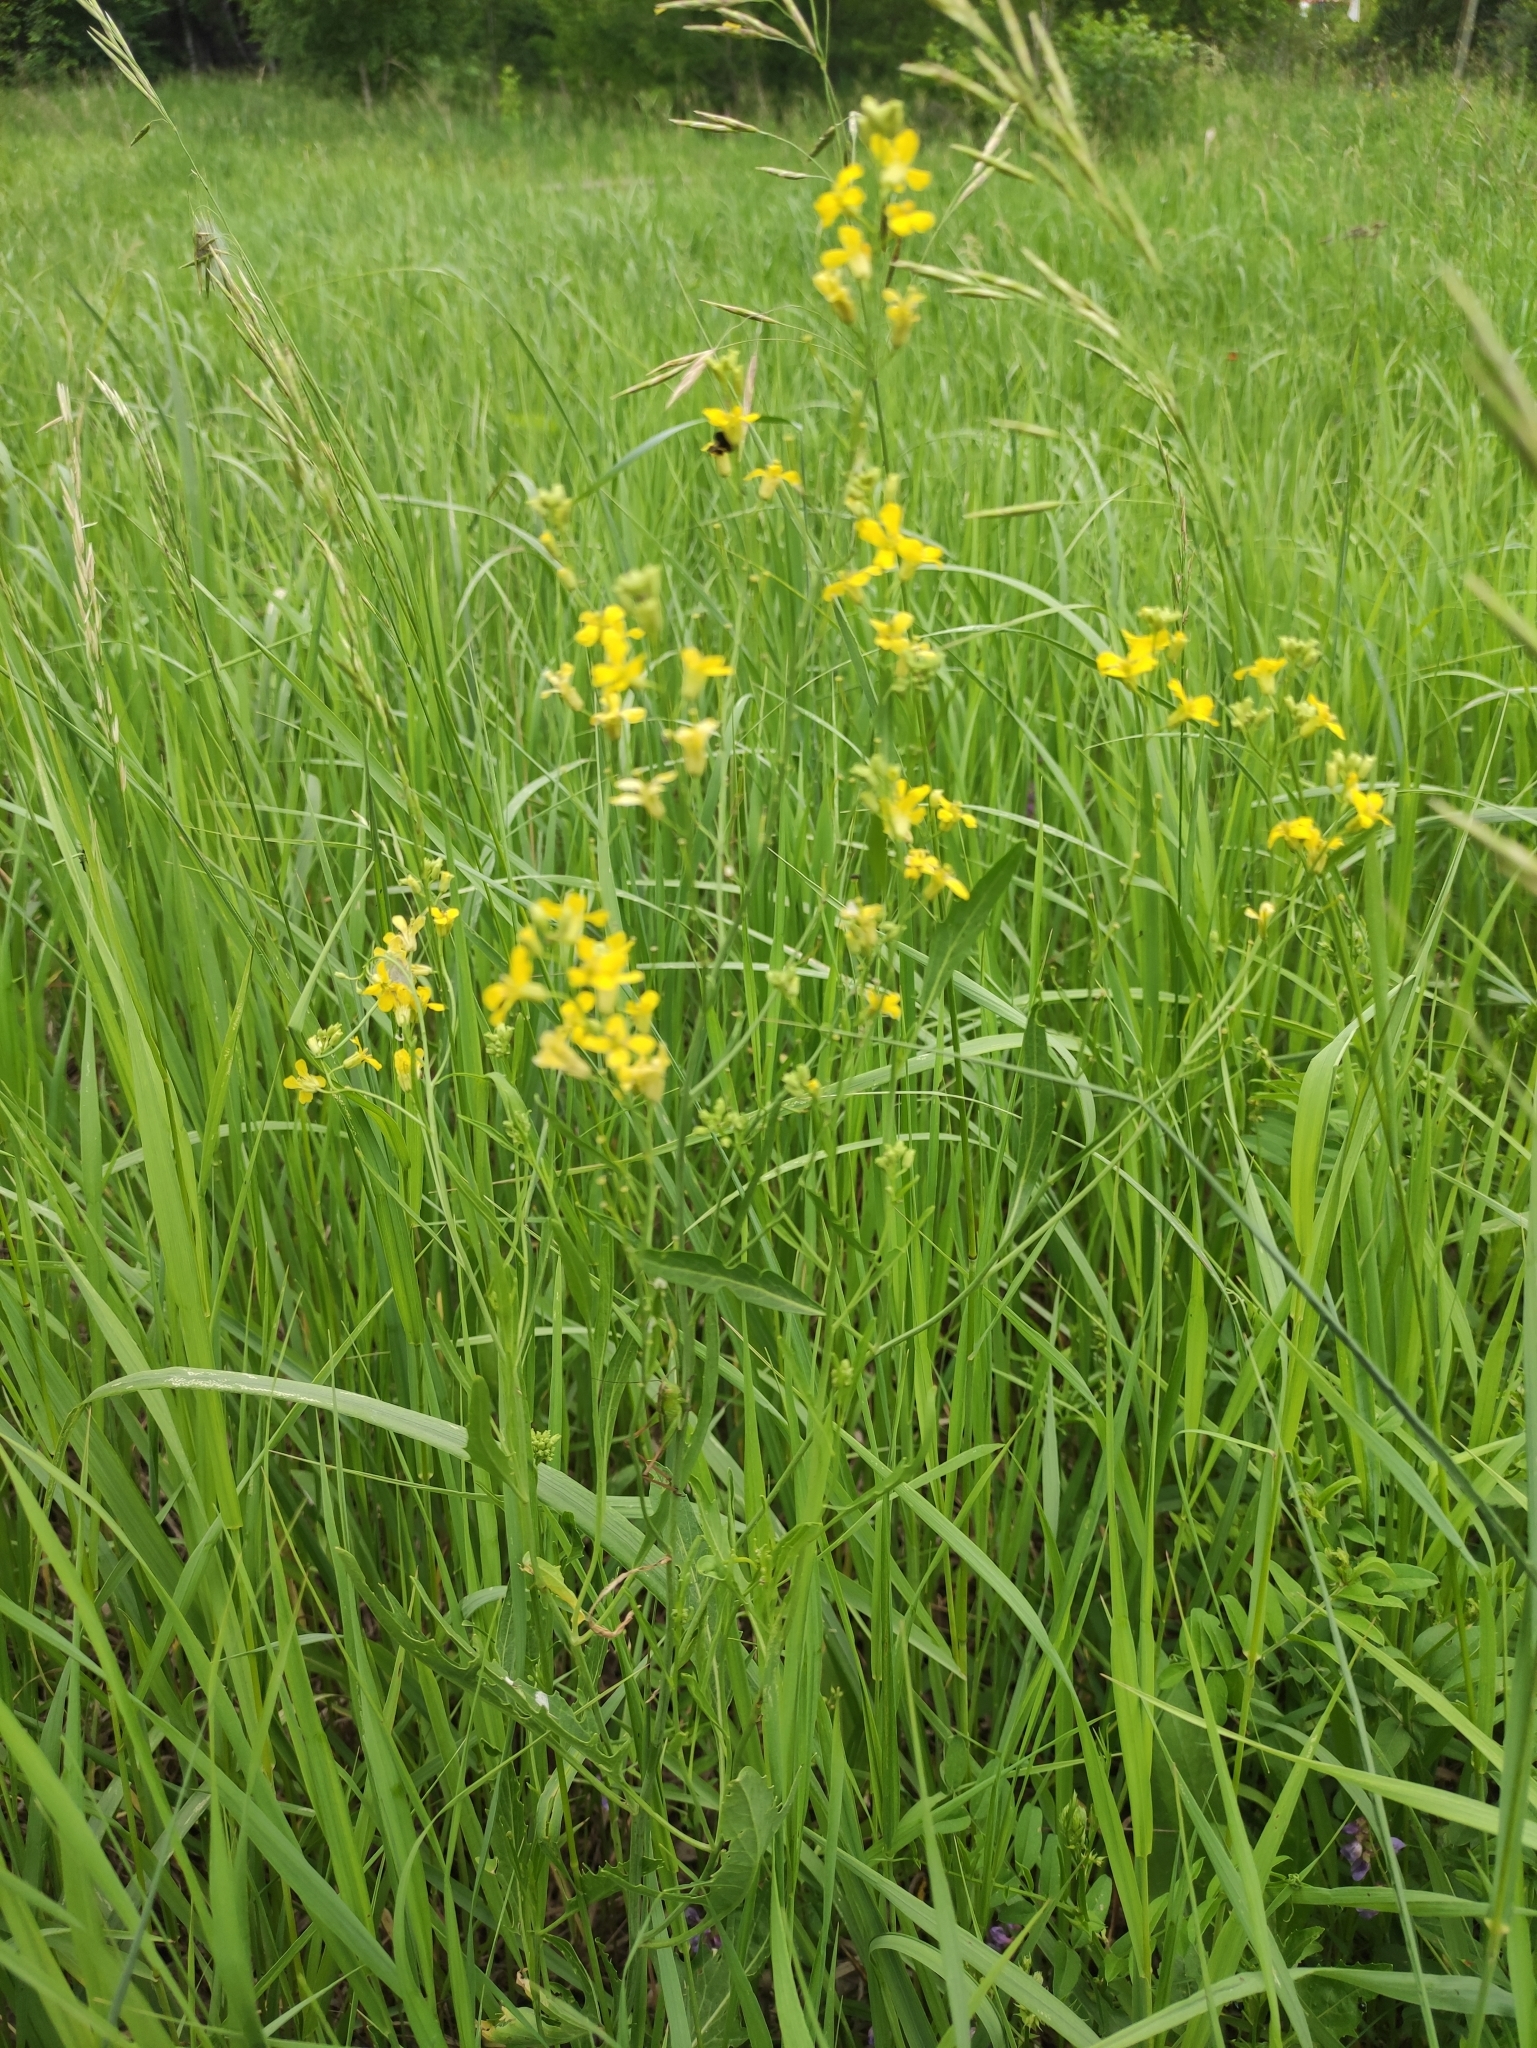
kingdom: Plantae
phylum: Tracheophyta
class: Magnoliopsida
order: Brassicales
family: Brassicaceae
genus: Sisymbrium
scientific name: Sisymbrium volgense
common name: Russian mustard
